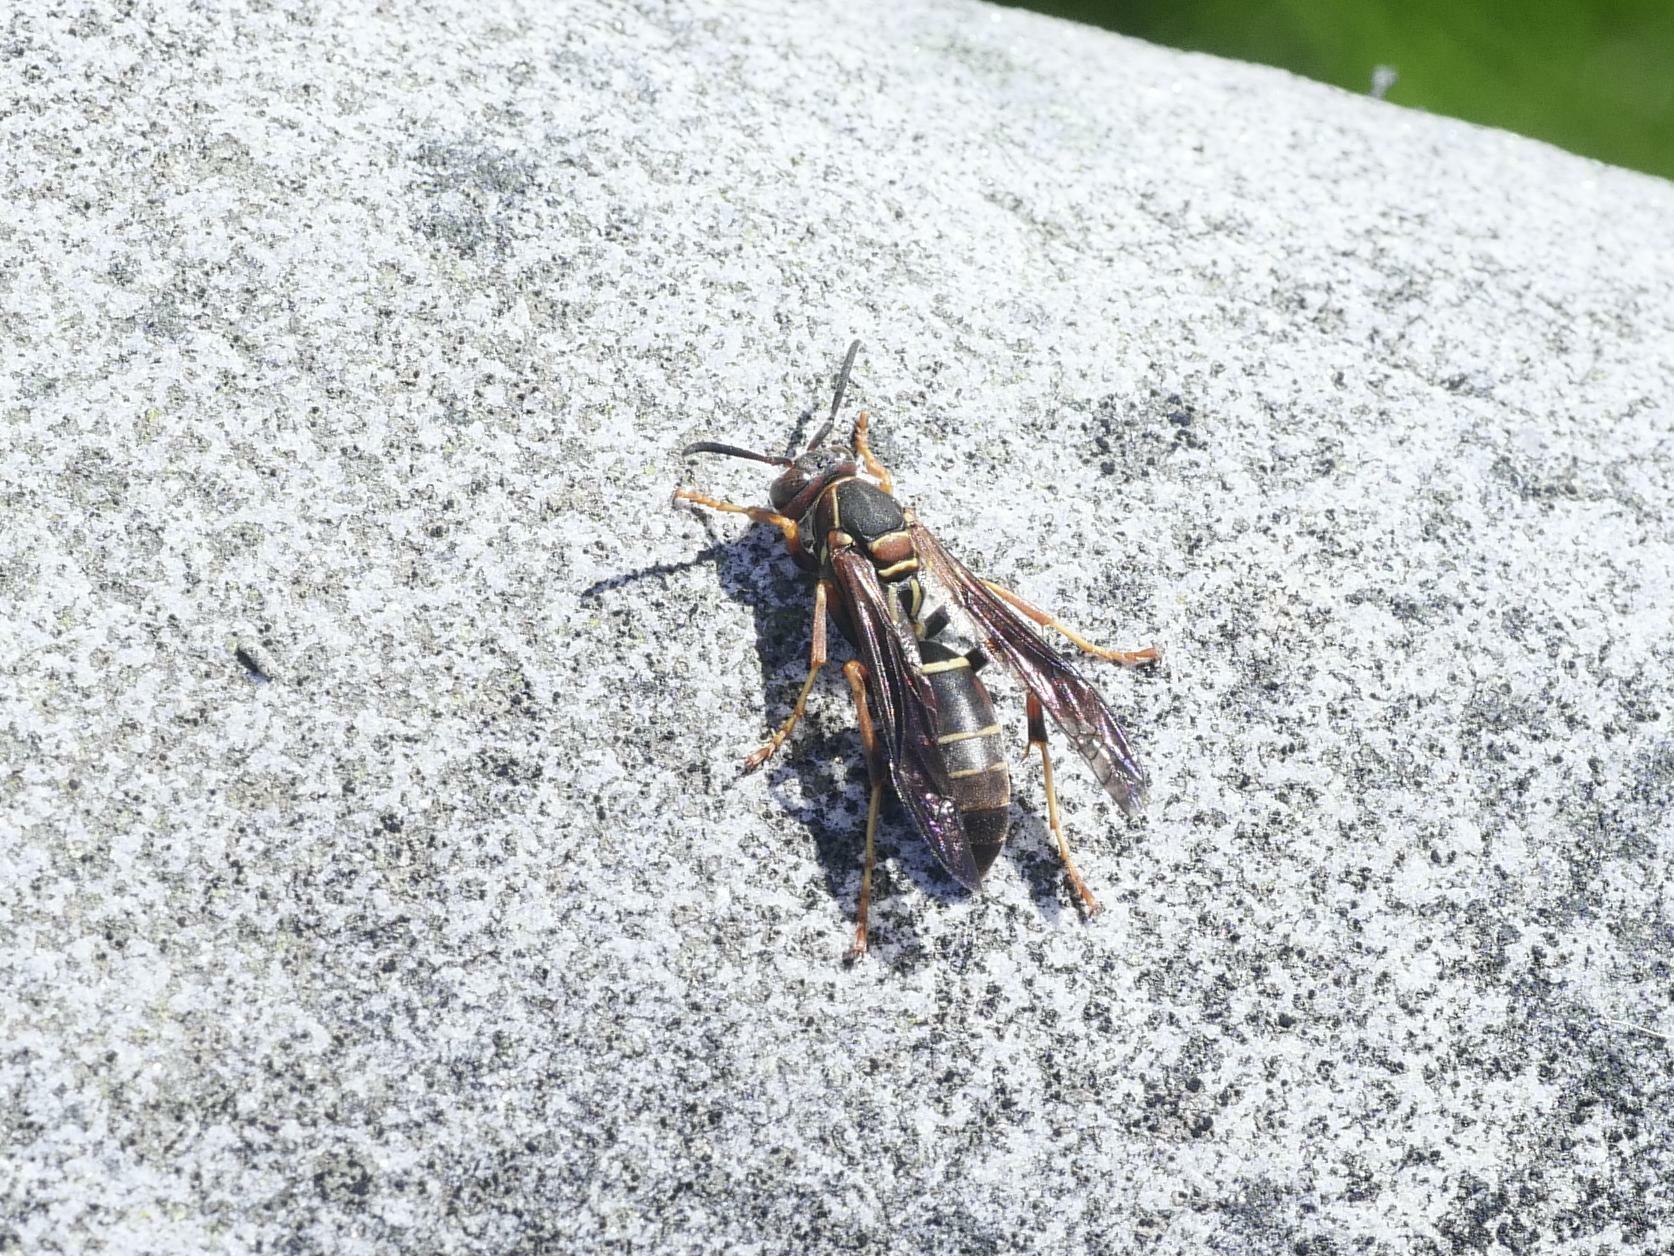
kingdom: Animalia
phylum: Arthropoda
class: Insecta
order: Hymenoptera
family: Eumenidae
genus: Polistes
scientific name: Polistes fuscatus
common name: Dark paper wasp
